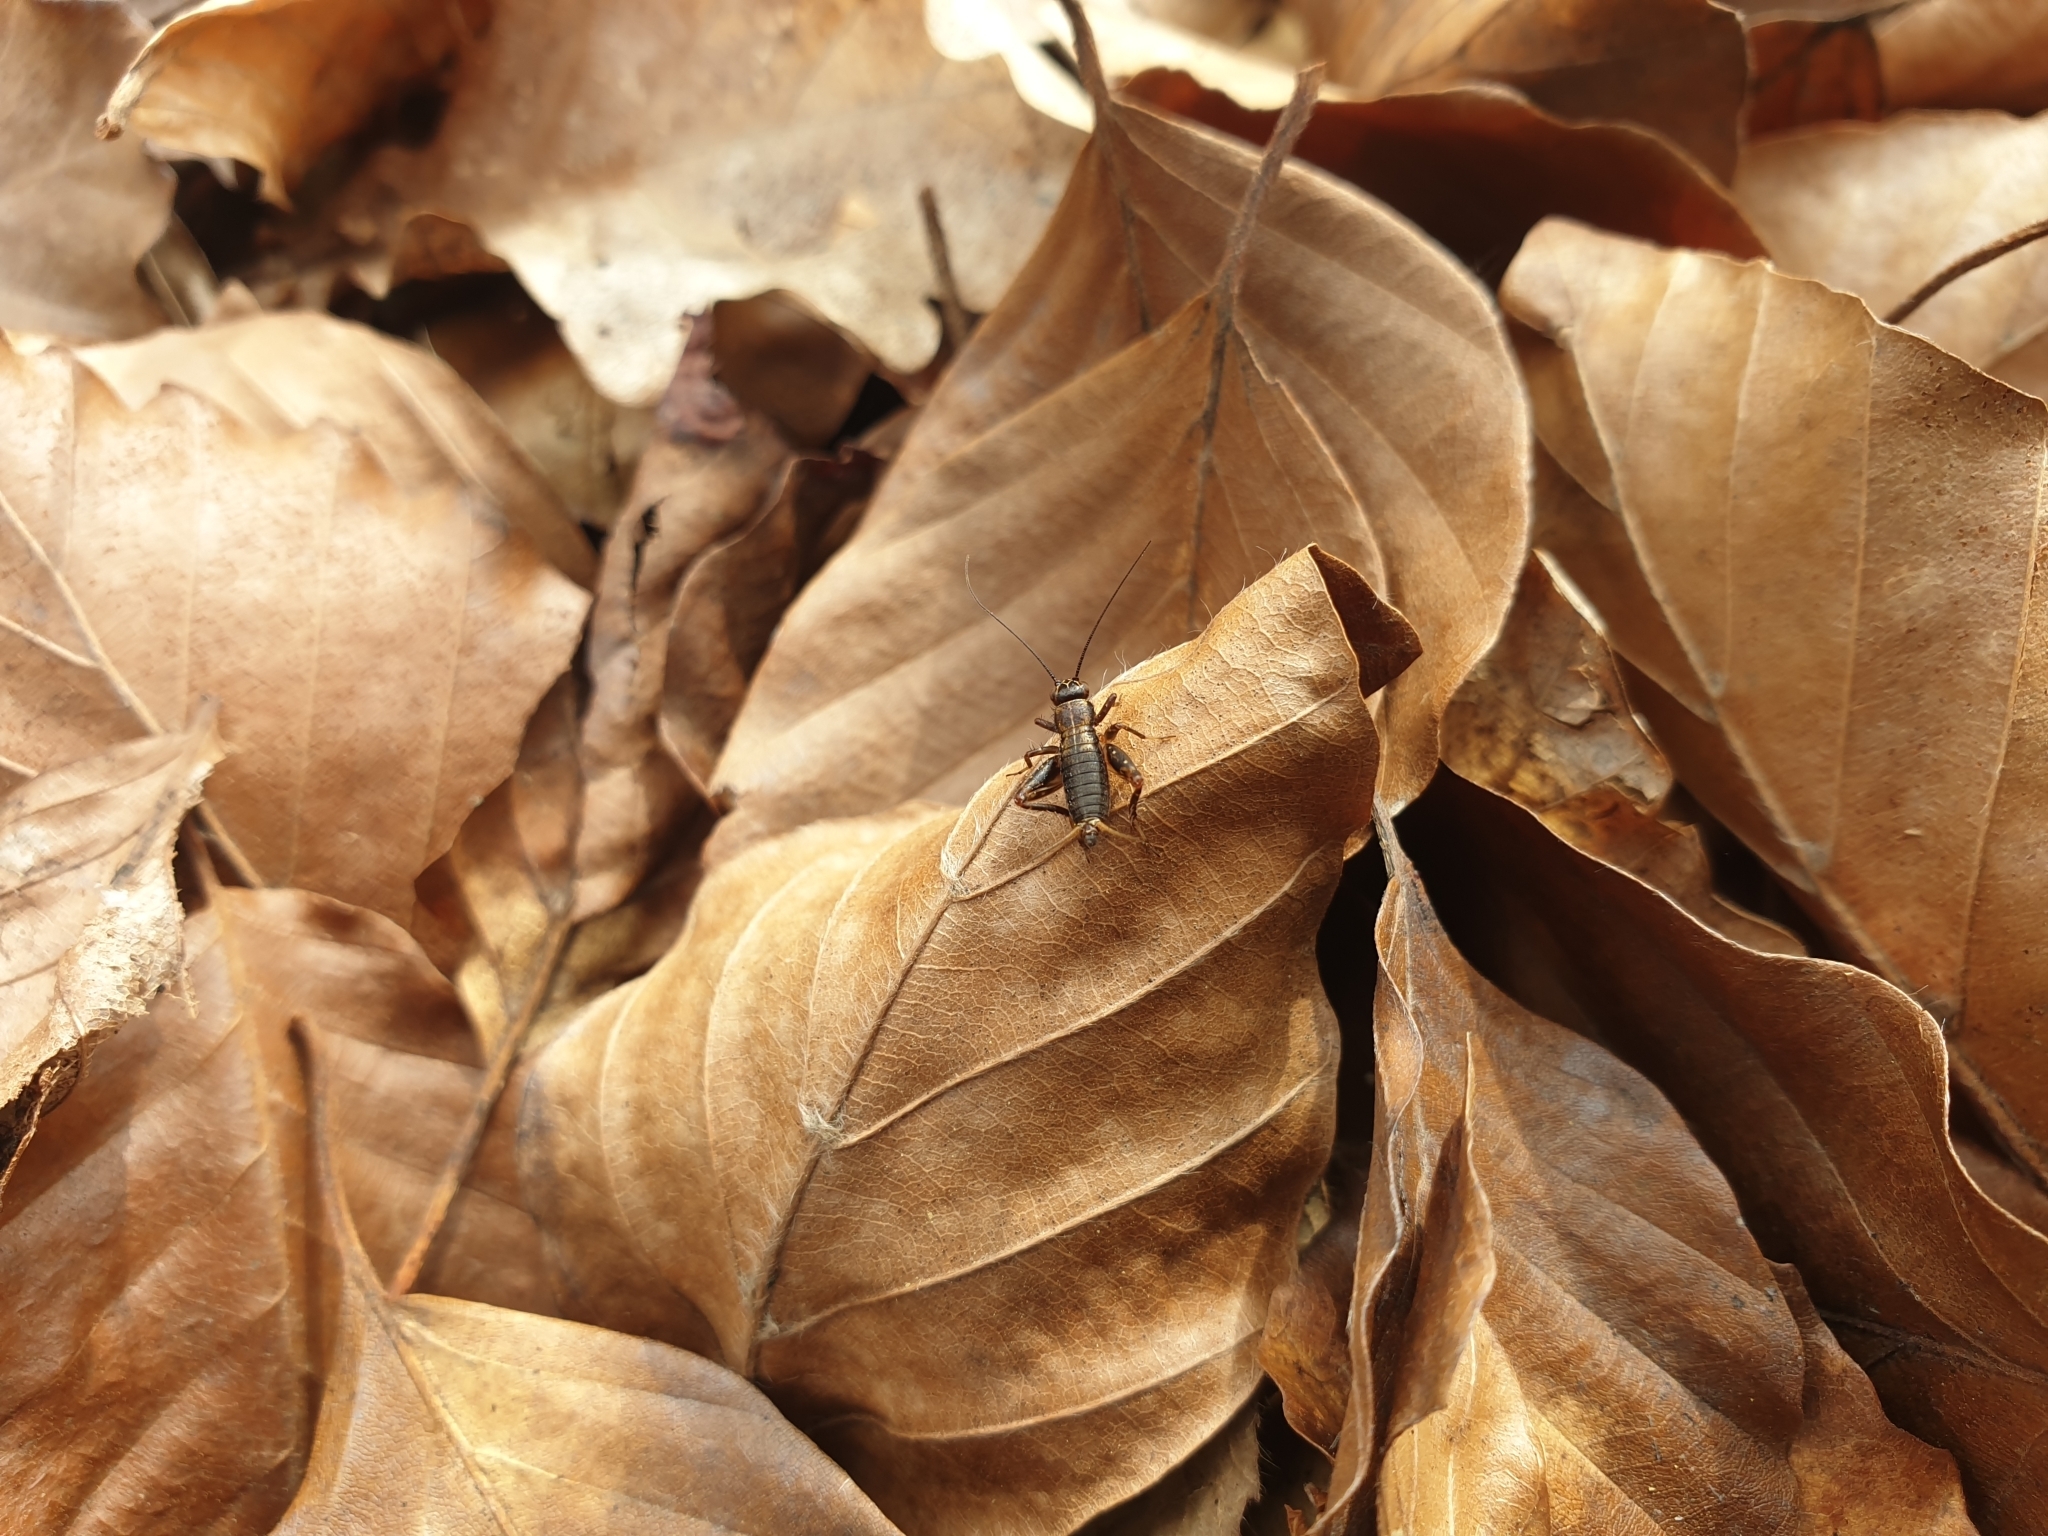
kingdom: Animalia
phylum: Arthropoda
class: Insecta
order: Orthoptera
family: Trigonidiidae
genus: Nemobius
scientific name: Nemobius sylvestris
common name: Wood-cricket
